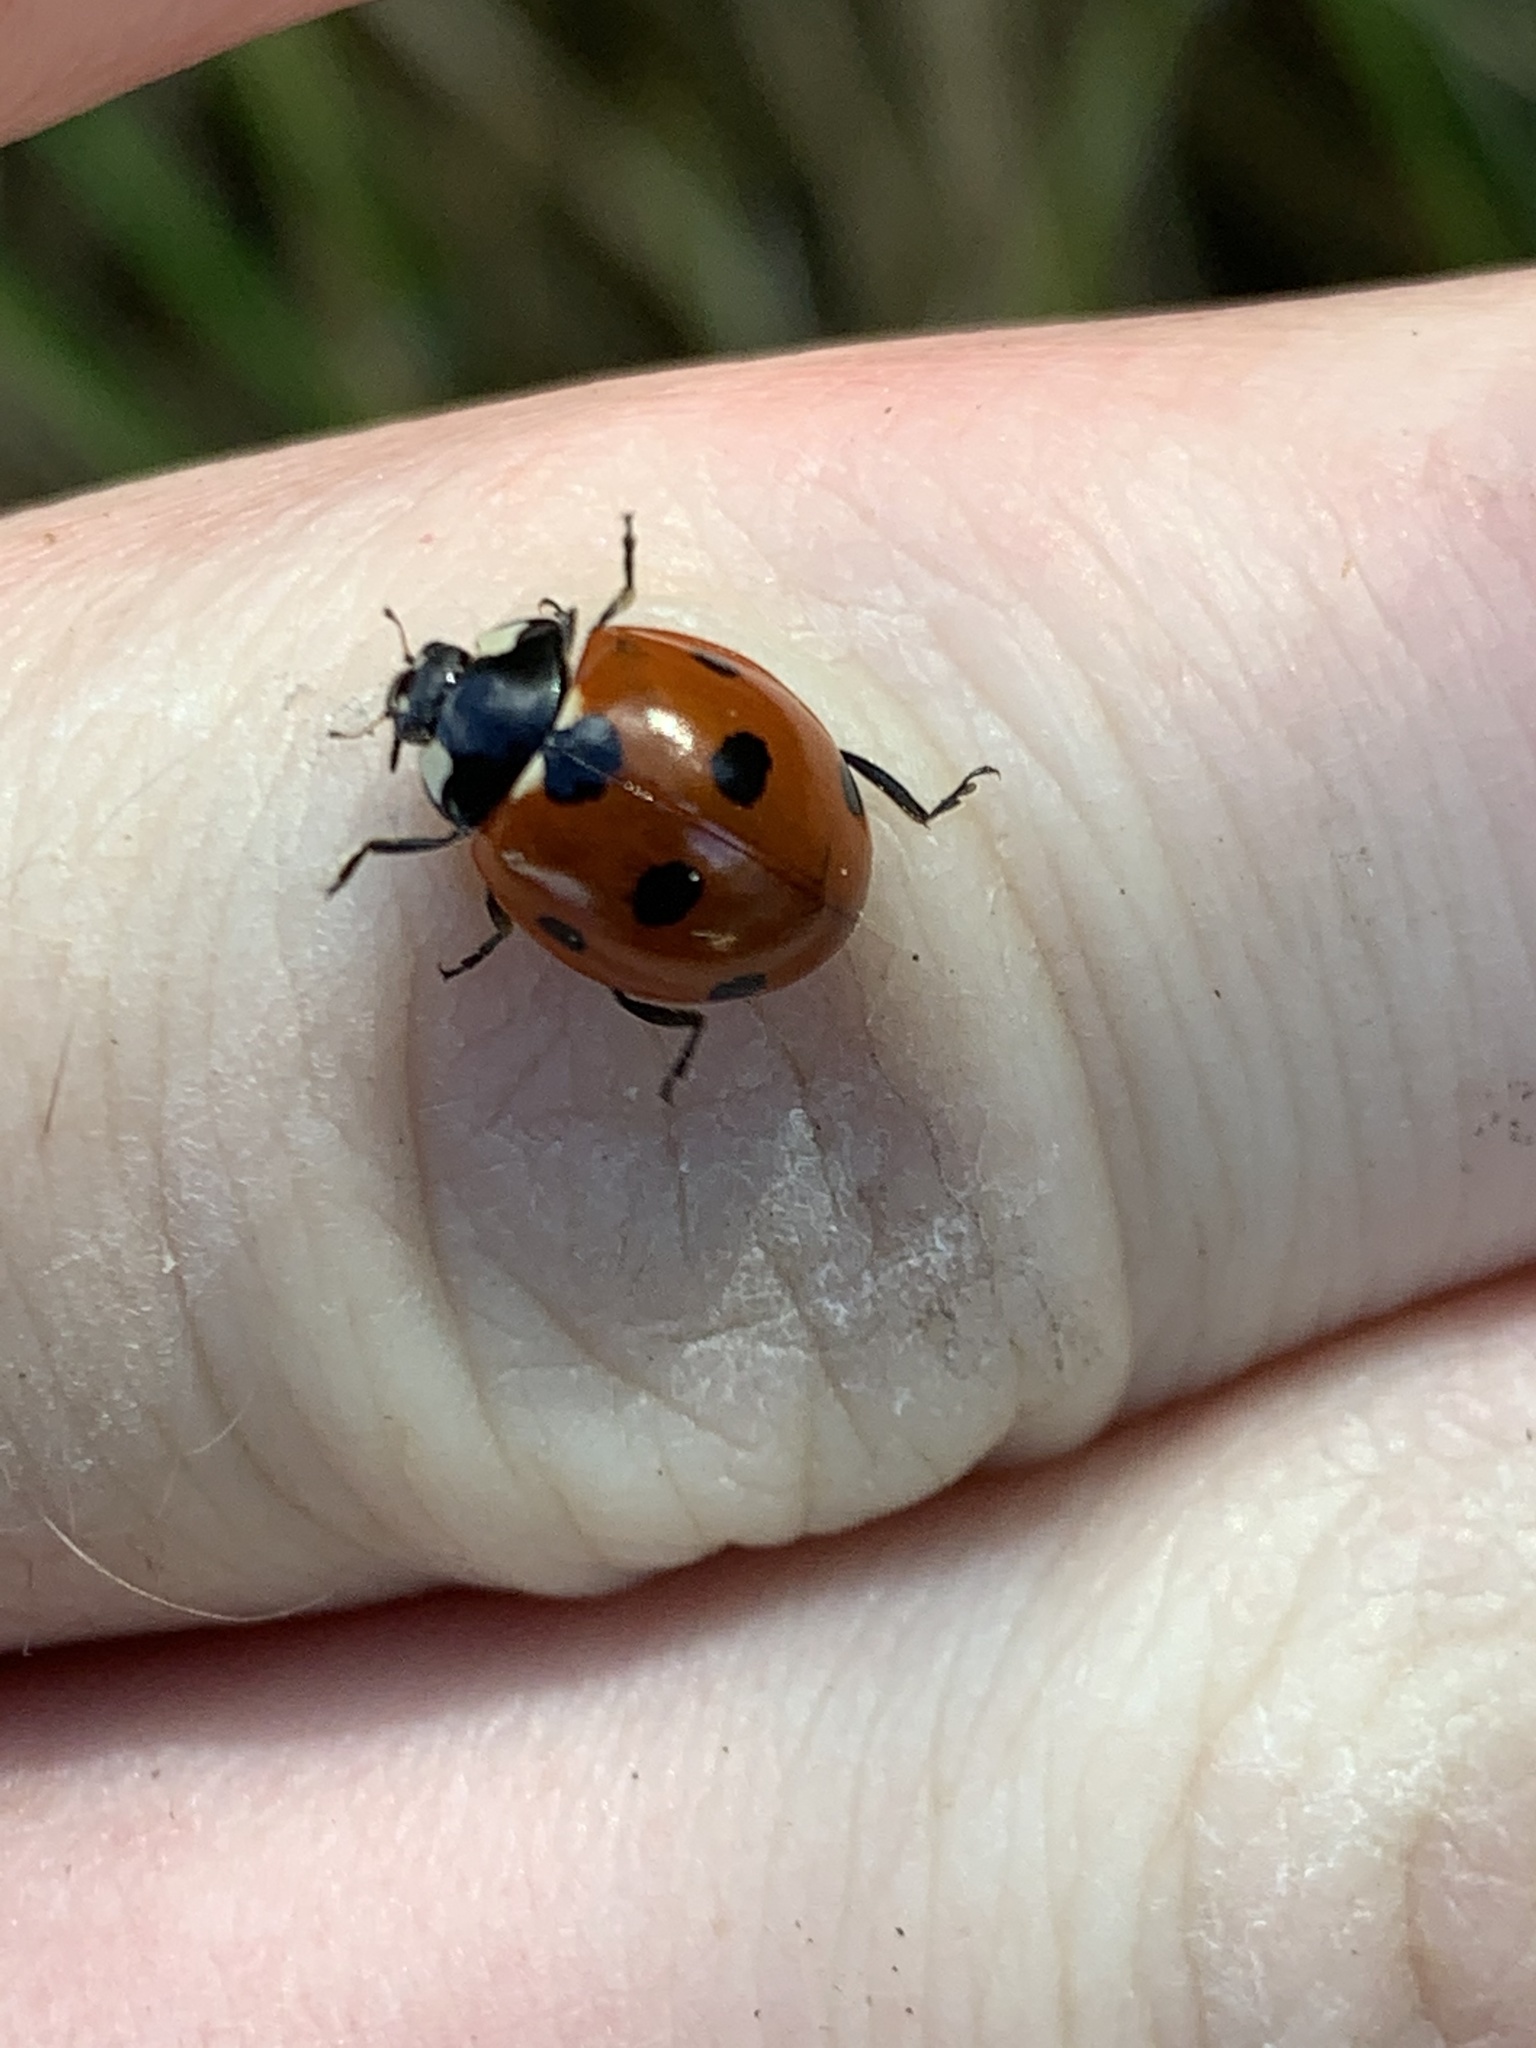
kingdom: Animalia
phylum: Arthropoda
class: Insecta
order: Coleoptera
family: Coccinellidae
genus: Coccinella
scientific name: Coccinella septempunctata
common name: Sevenspotted lady beetle
